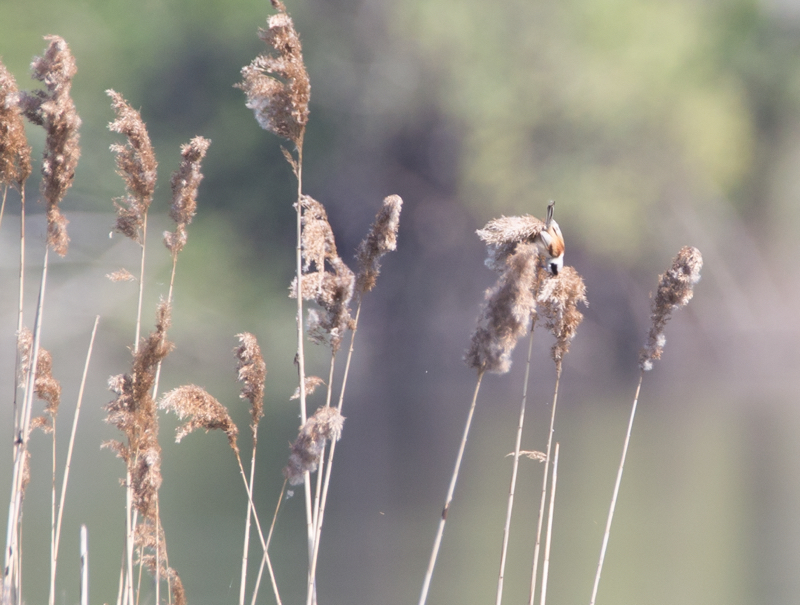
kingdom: Animalia
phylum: Chordata
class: Aves
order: Passeriformes
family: Remizidae
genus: Remiz
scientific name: Remiz pendulinus
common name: Eurasian penduline tit
